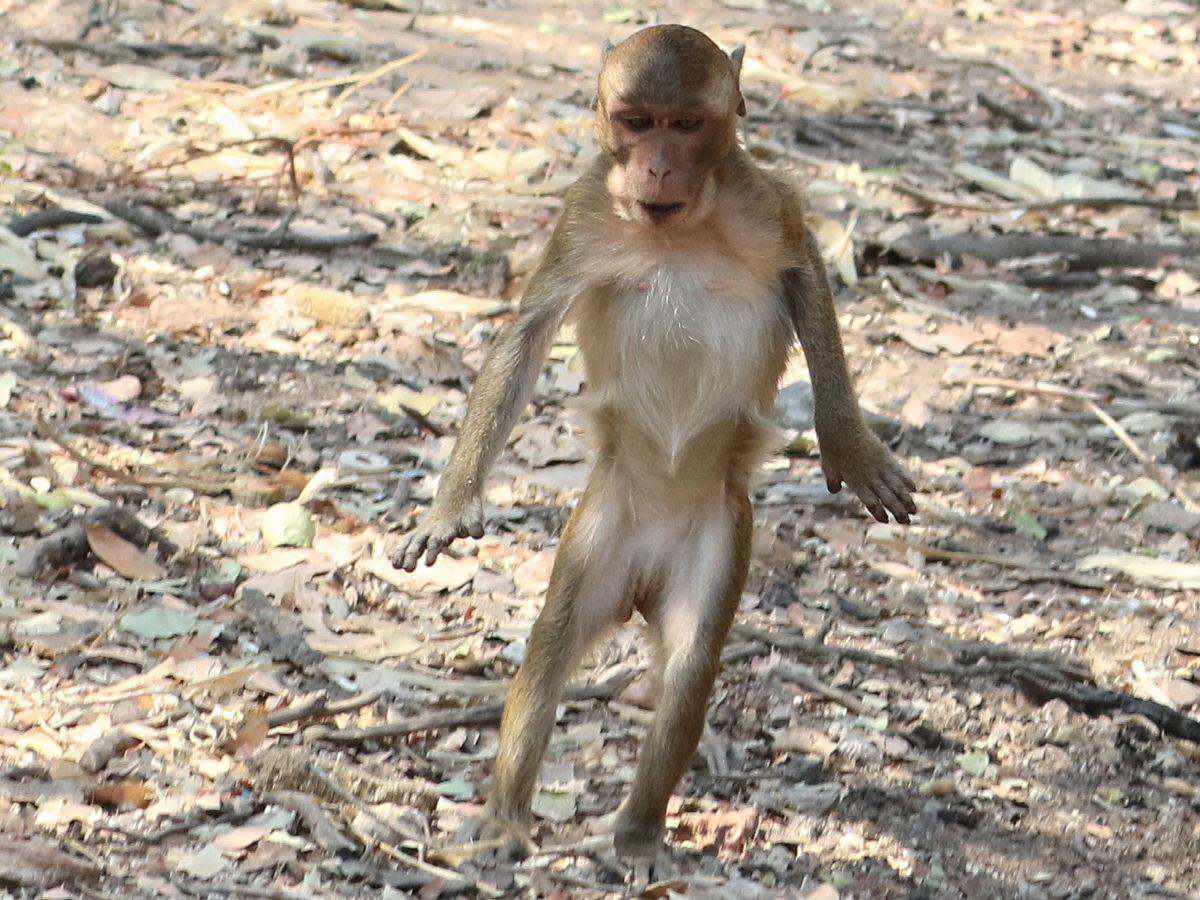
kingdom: Animalia
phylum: Chordata
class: Mammalia
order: Primates
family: Cercopithecidae
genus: Macaca
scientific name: Macaca fascicularis
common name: Crab-eating macaque
